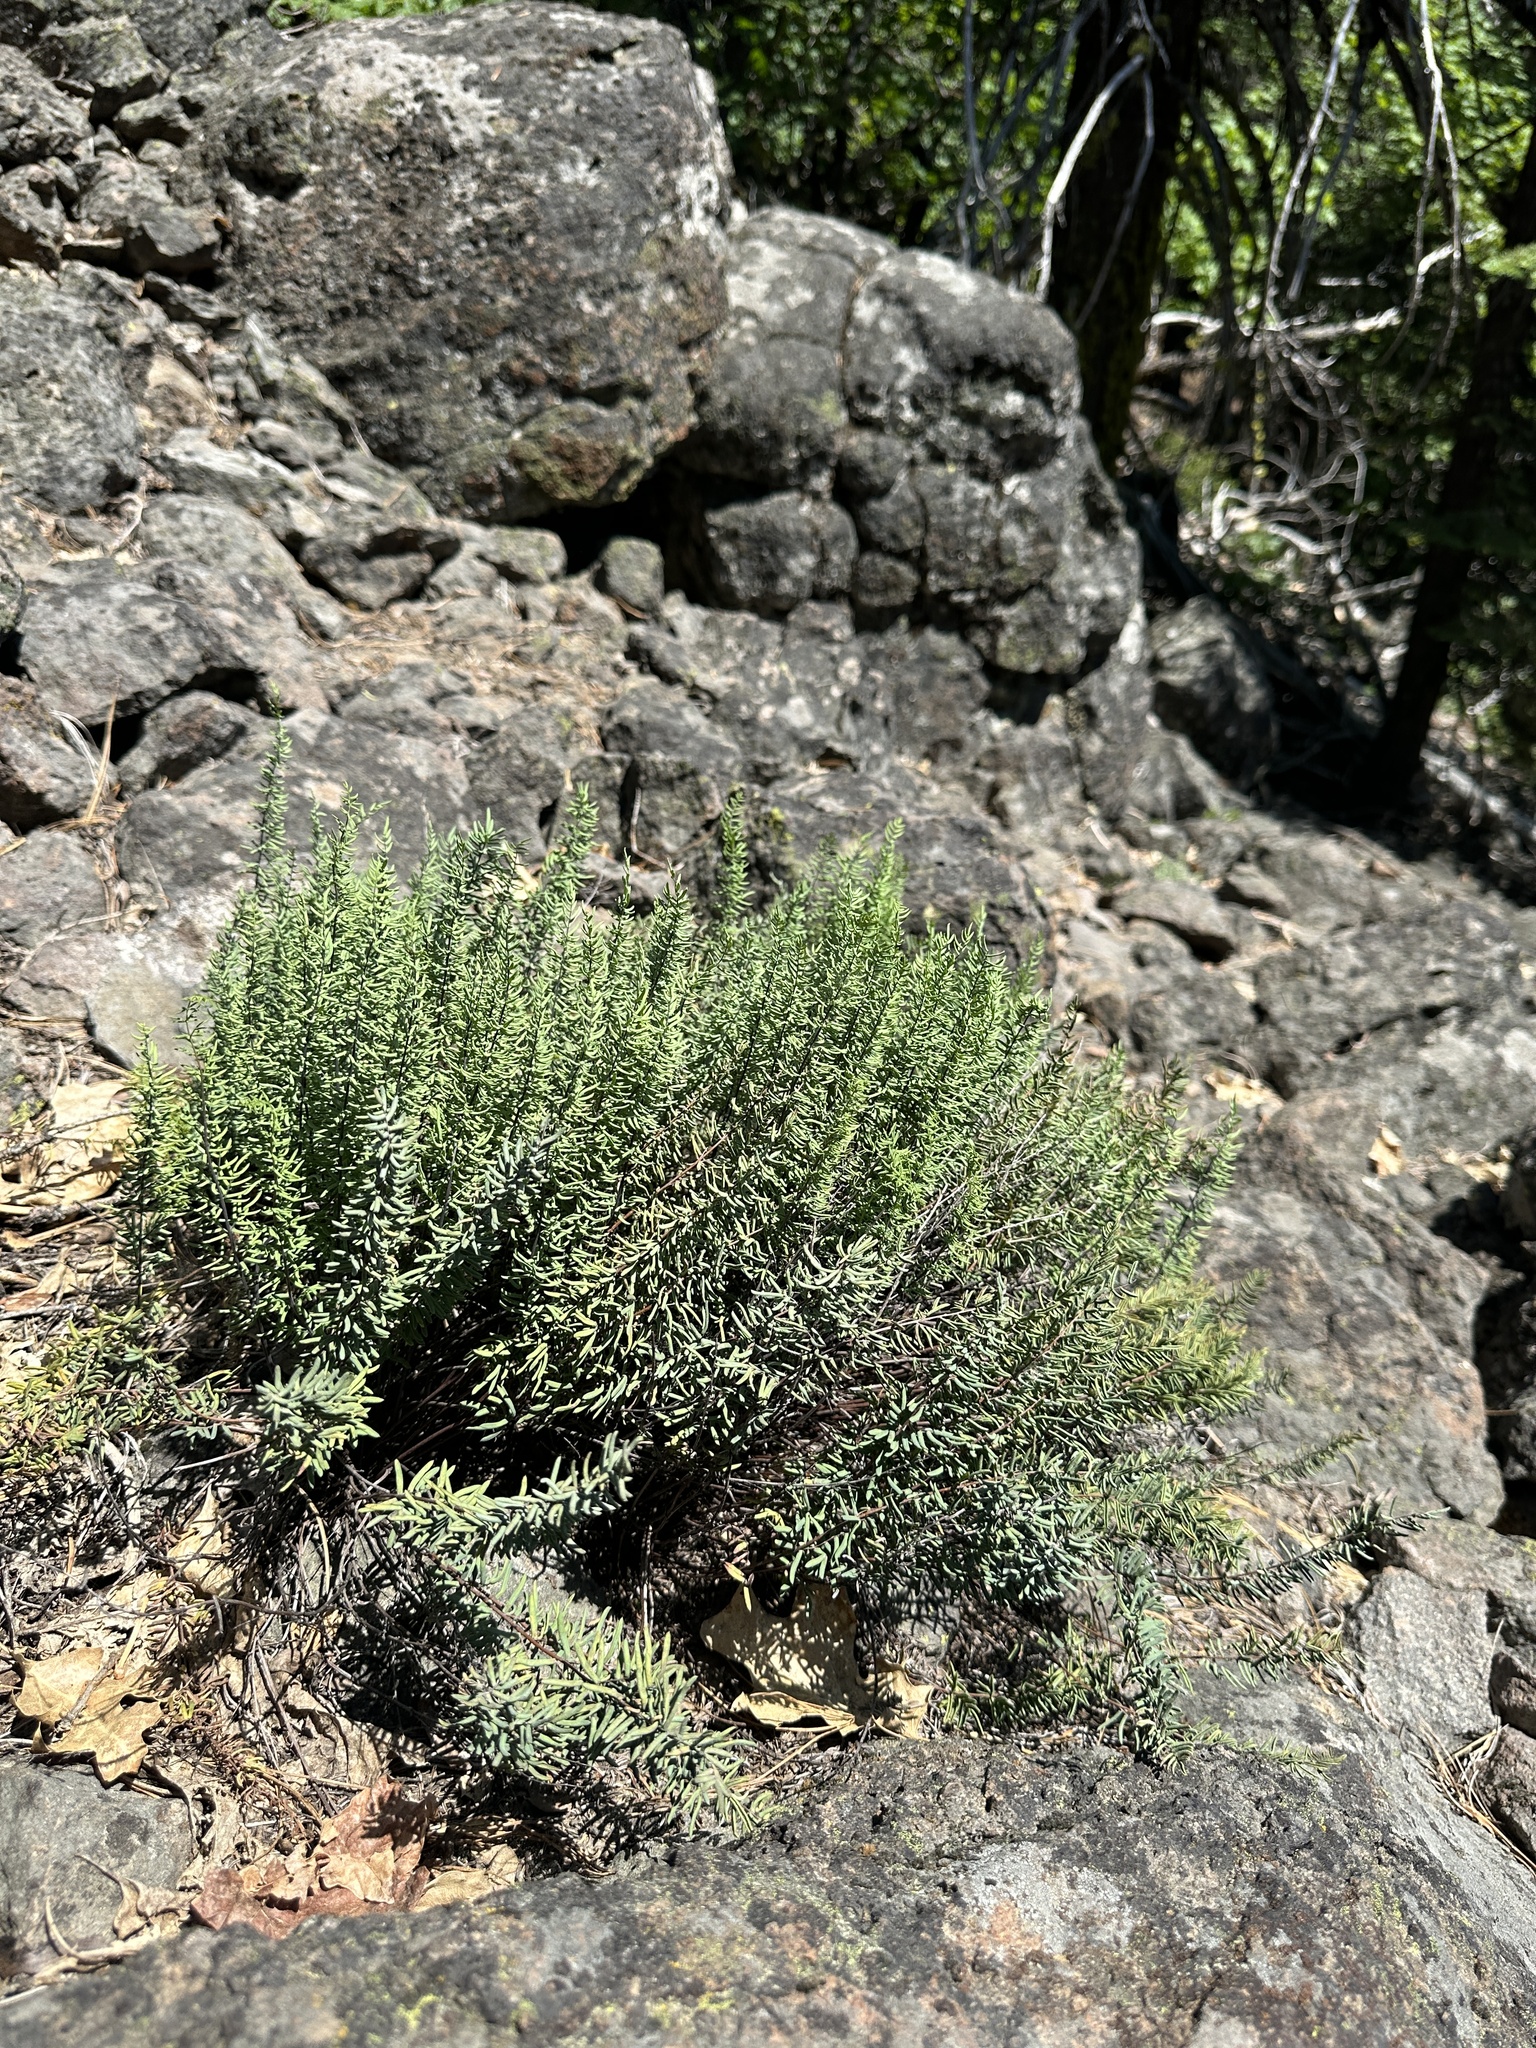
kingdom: Plantae
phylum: Tracheophyta
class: Polypodiopsida
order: Polypodiales
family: Pteridaceae
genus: Pellaea
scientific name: Pellaea brachyptera
